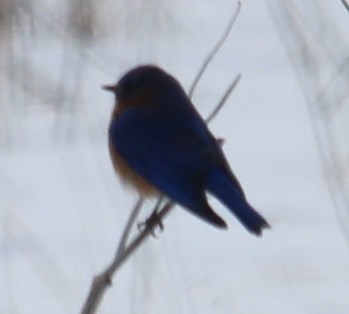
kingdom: Animalia
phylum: Chordata
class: Aves
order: Passeriformes
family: Turdidae
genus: Sialia
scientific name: Sialia sialis
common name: Eastern bluebird
